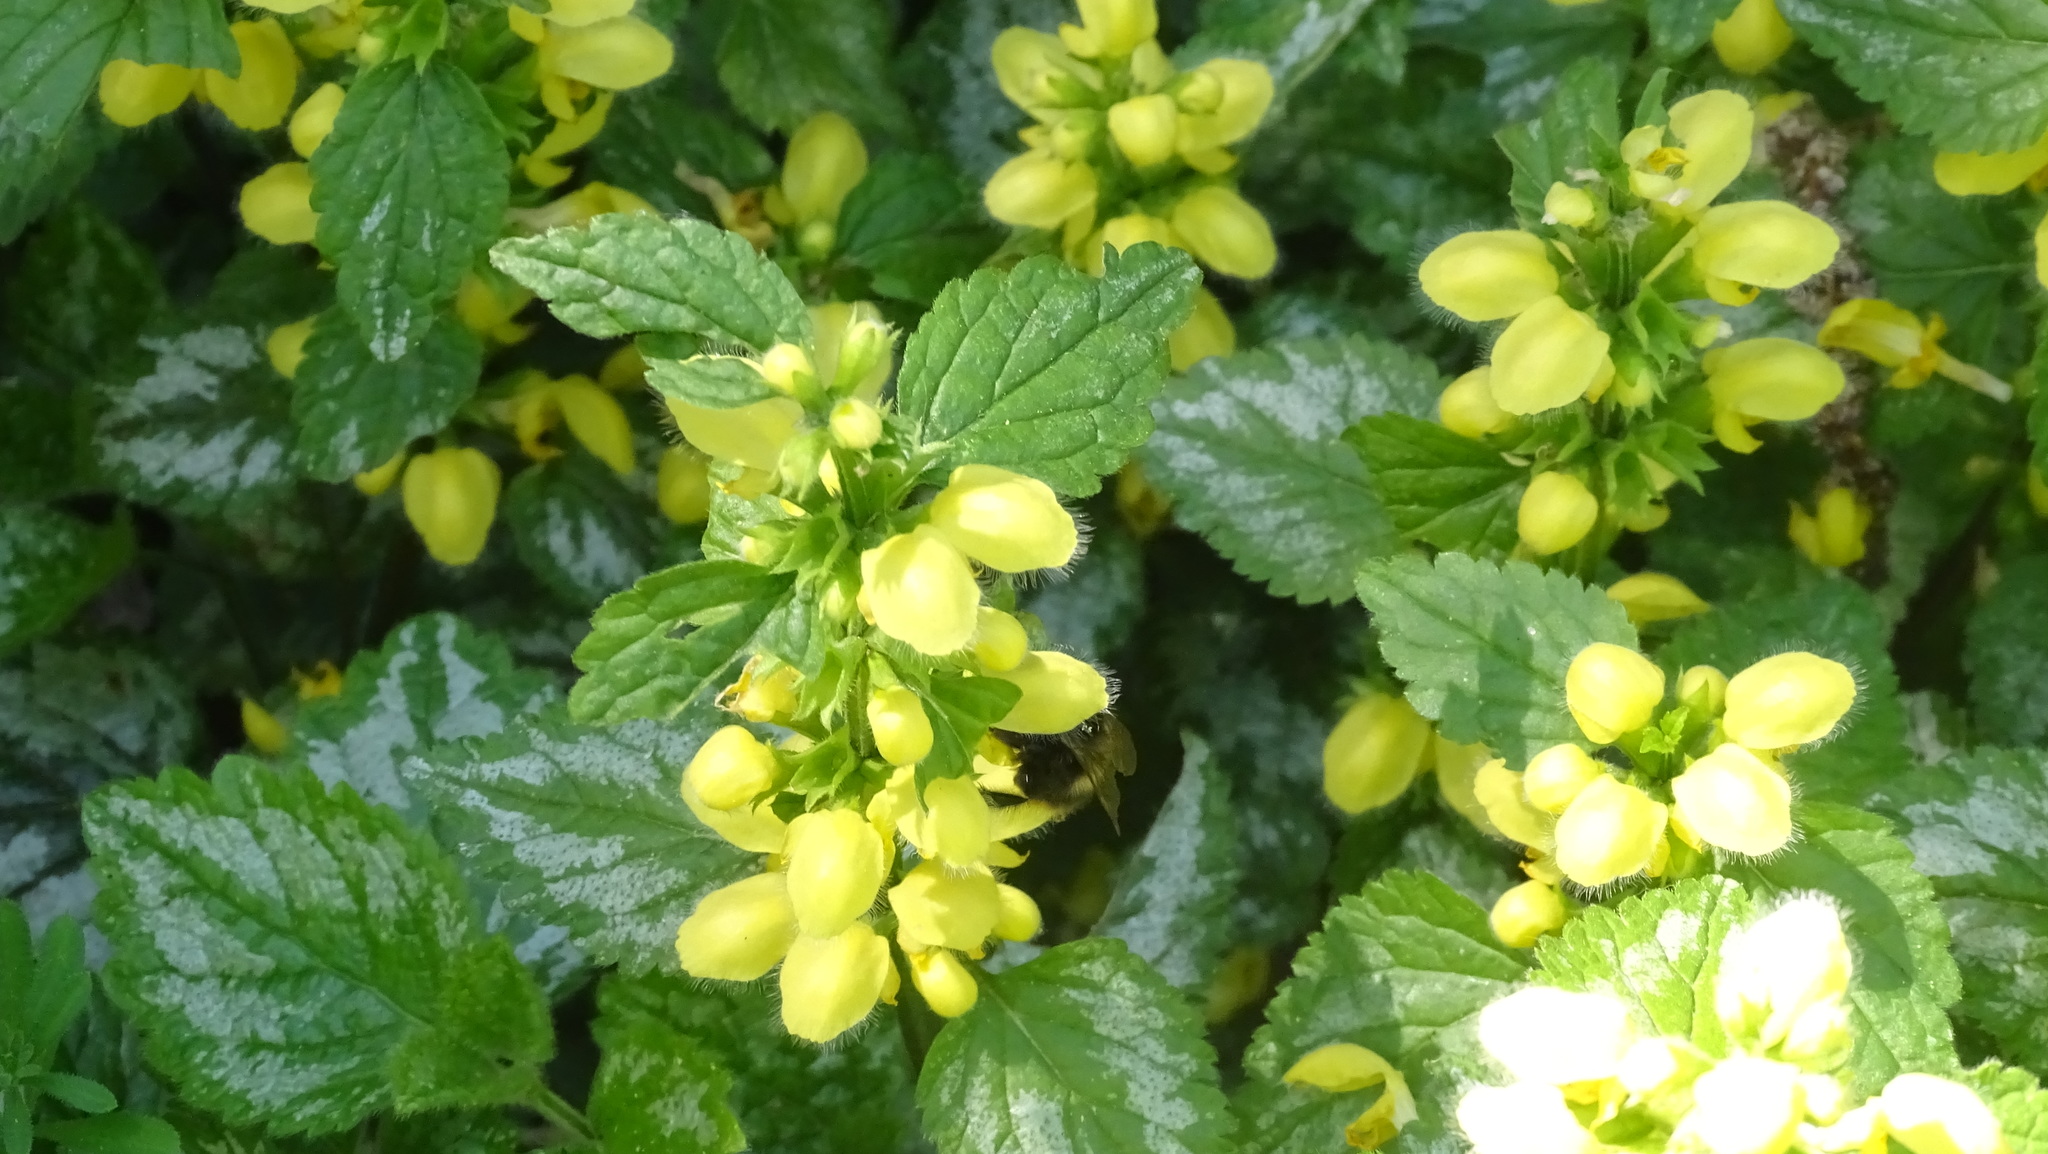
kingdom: Plantae
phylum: Tracheophyta
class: Magnoliopsida
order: Lamiales
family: Lamiaceae
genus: Lamium
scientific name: Lamium galeobdolon
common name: Yellow archangel
